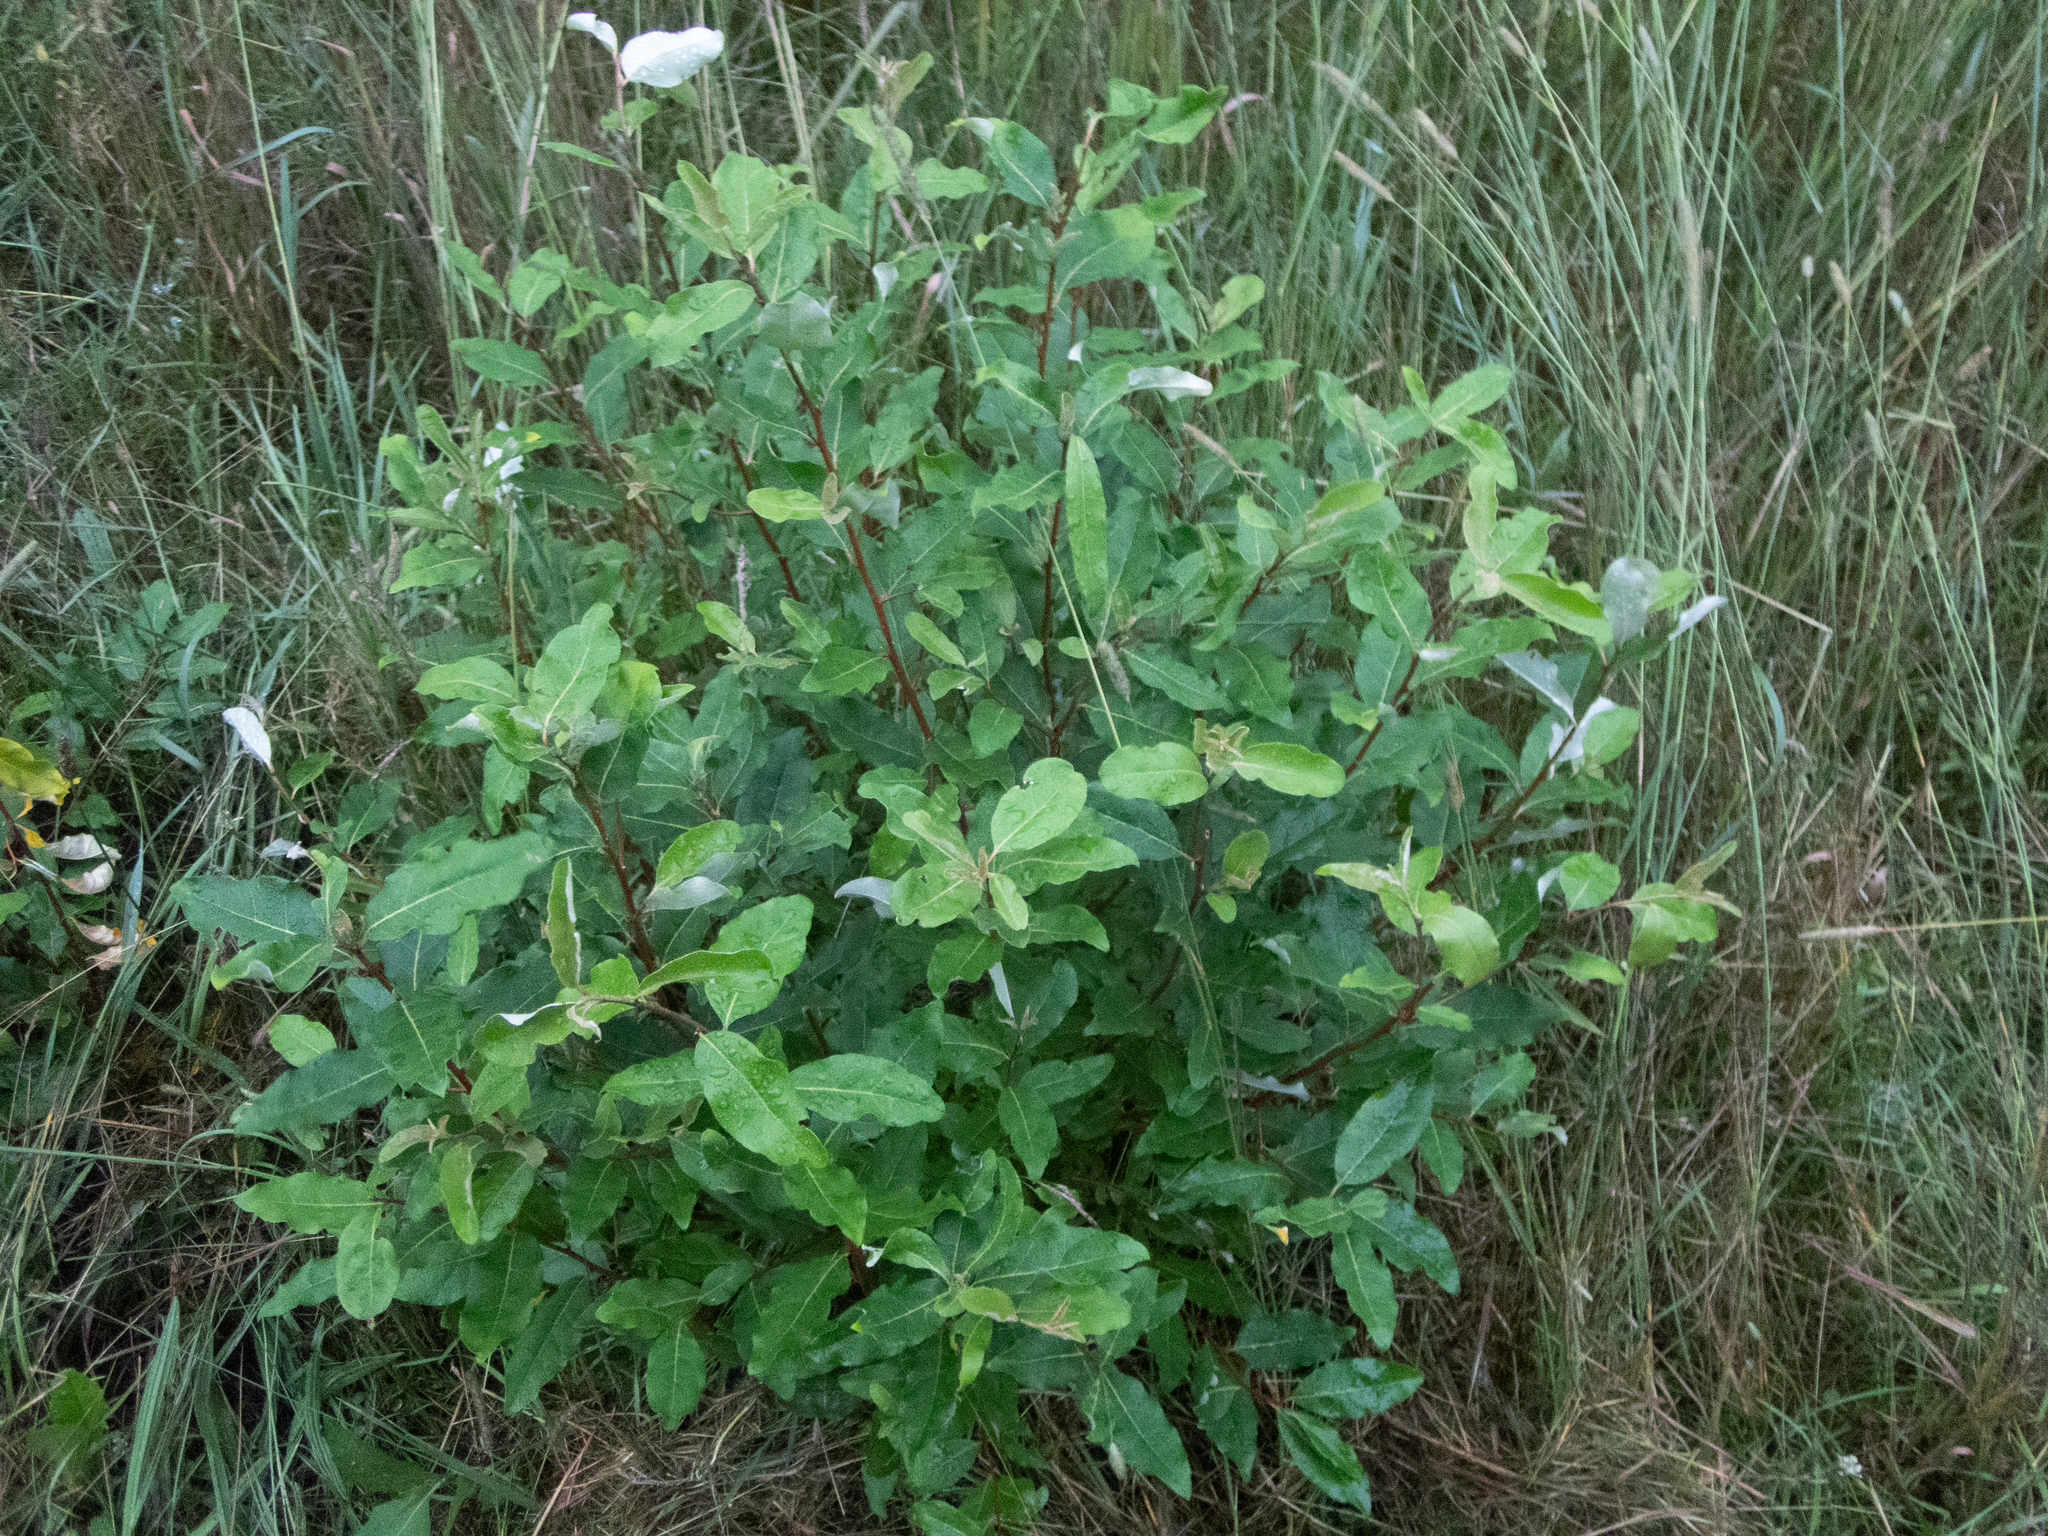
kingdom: Plantae
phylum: Tracheophyta
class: Magnoliopsida
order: Rosales
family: Elaeagnaceae
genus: Elaeagnus
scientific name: Elaeagnus umbellata
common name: Autumn olive
